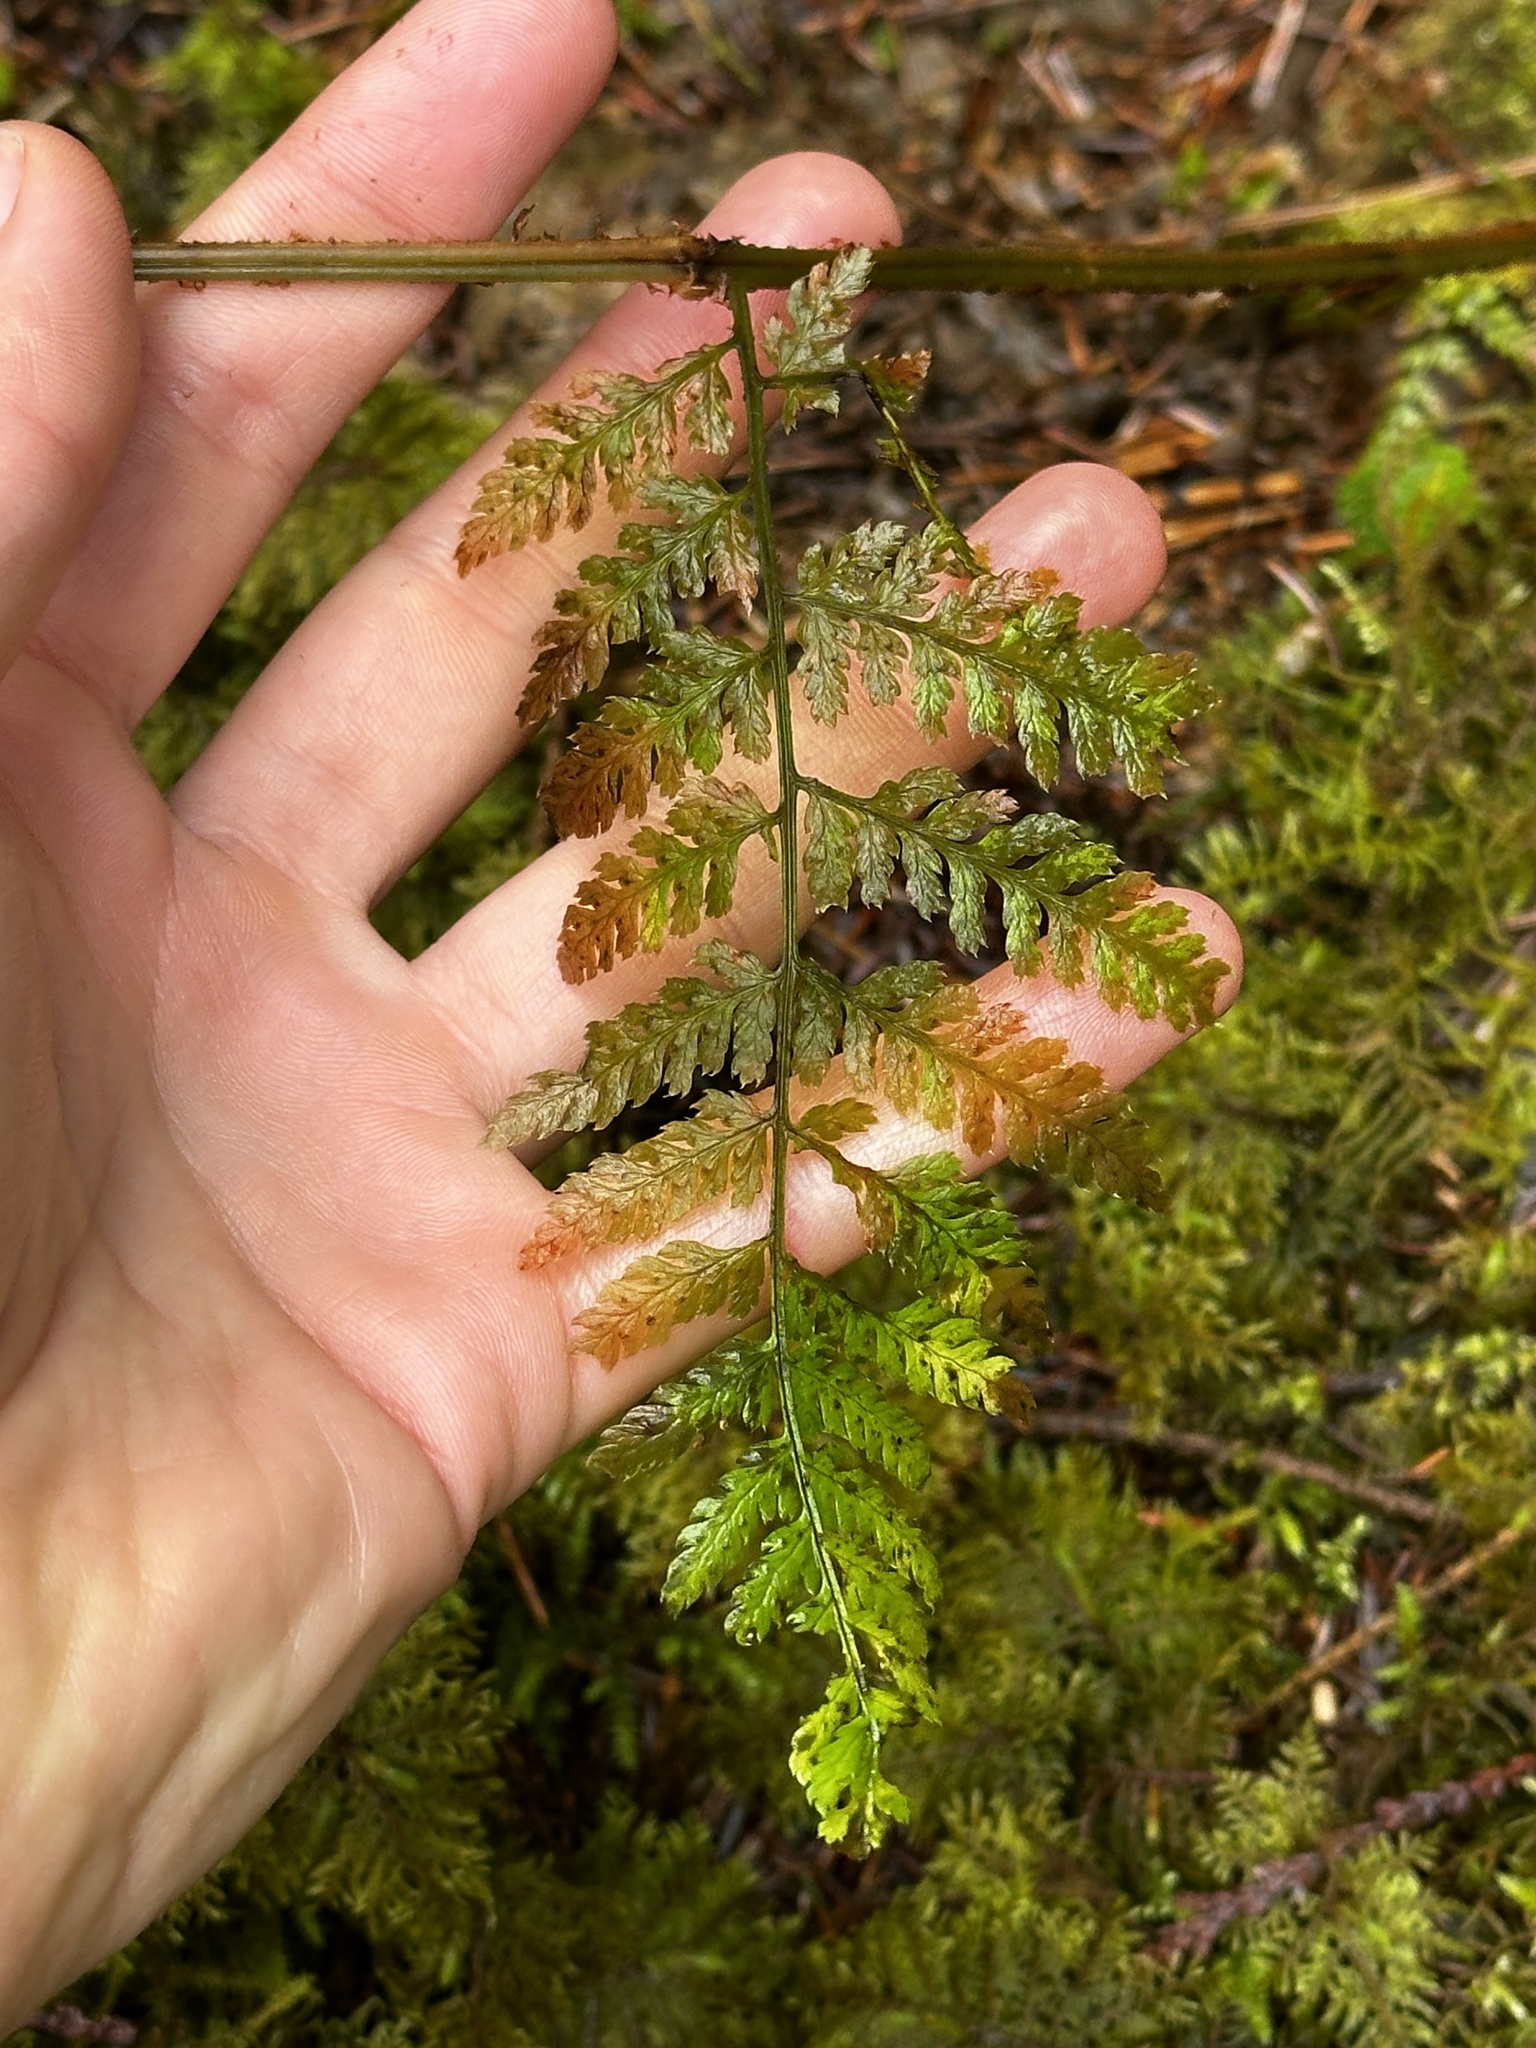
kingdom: Plantae
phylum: Tracheophyta
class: Polypodiopsida
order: Polypodiales
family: Dryopteridaceae
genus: Dryopteris
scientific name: Dryopteris expansa
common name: Northern buckler fern
